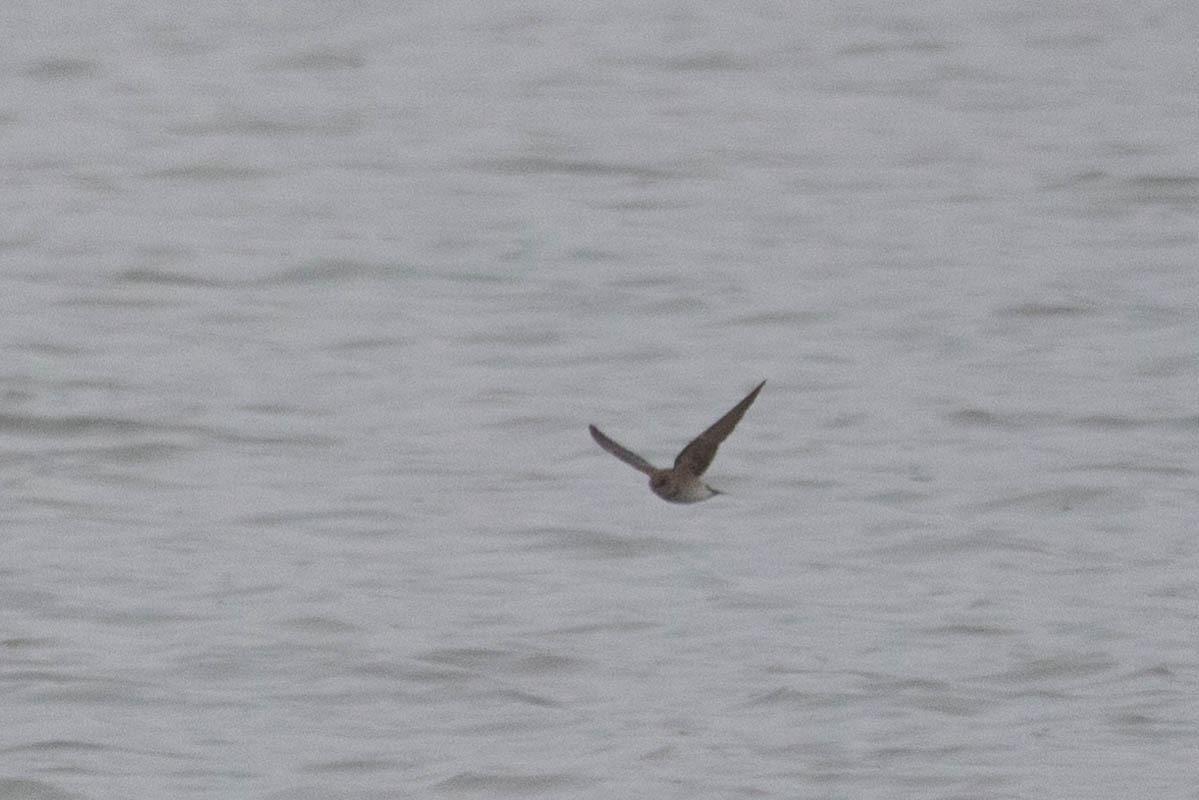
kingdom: Animalia
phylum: Chordata
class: Aves
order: Passeriformes
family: Hirundinidae
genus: Stelgidopteryx
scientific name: Stelgidopteryx serripennis
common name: Northern rough-winged swallow
